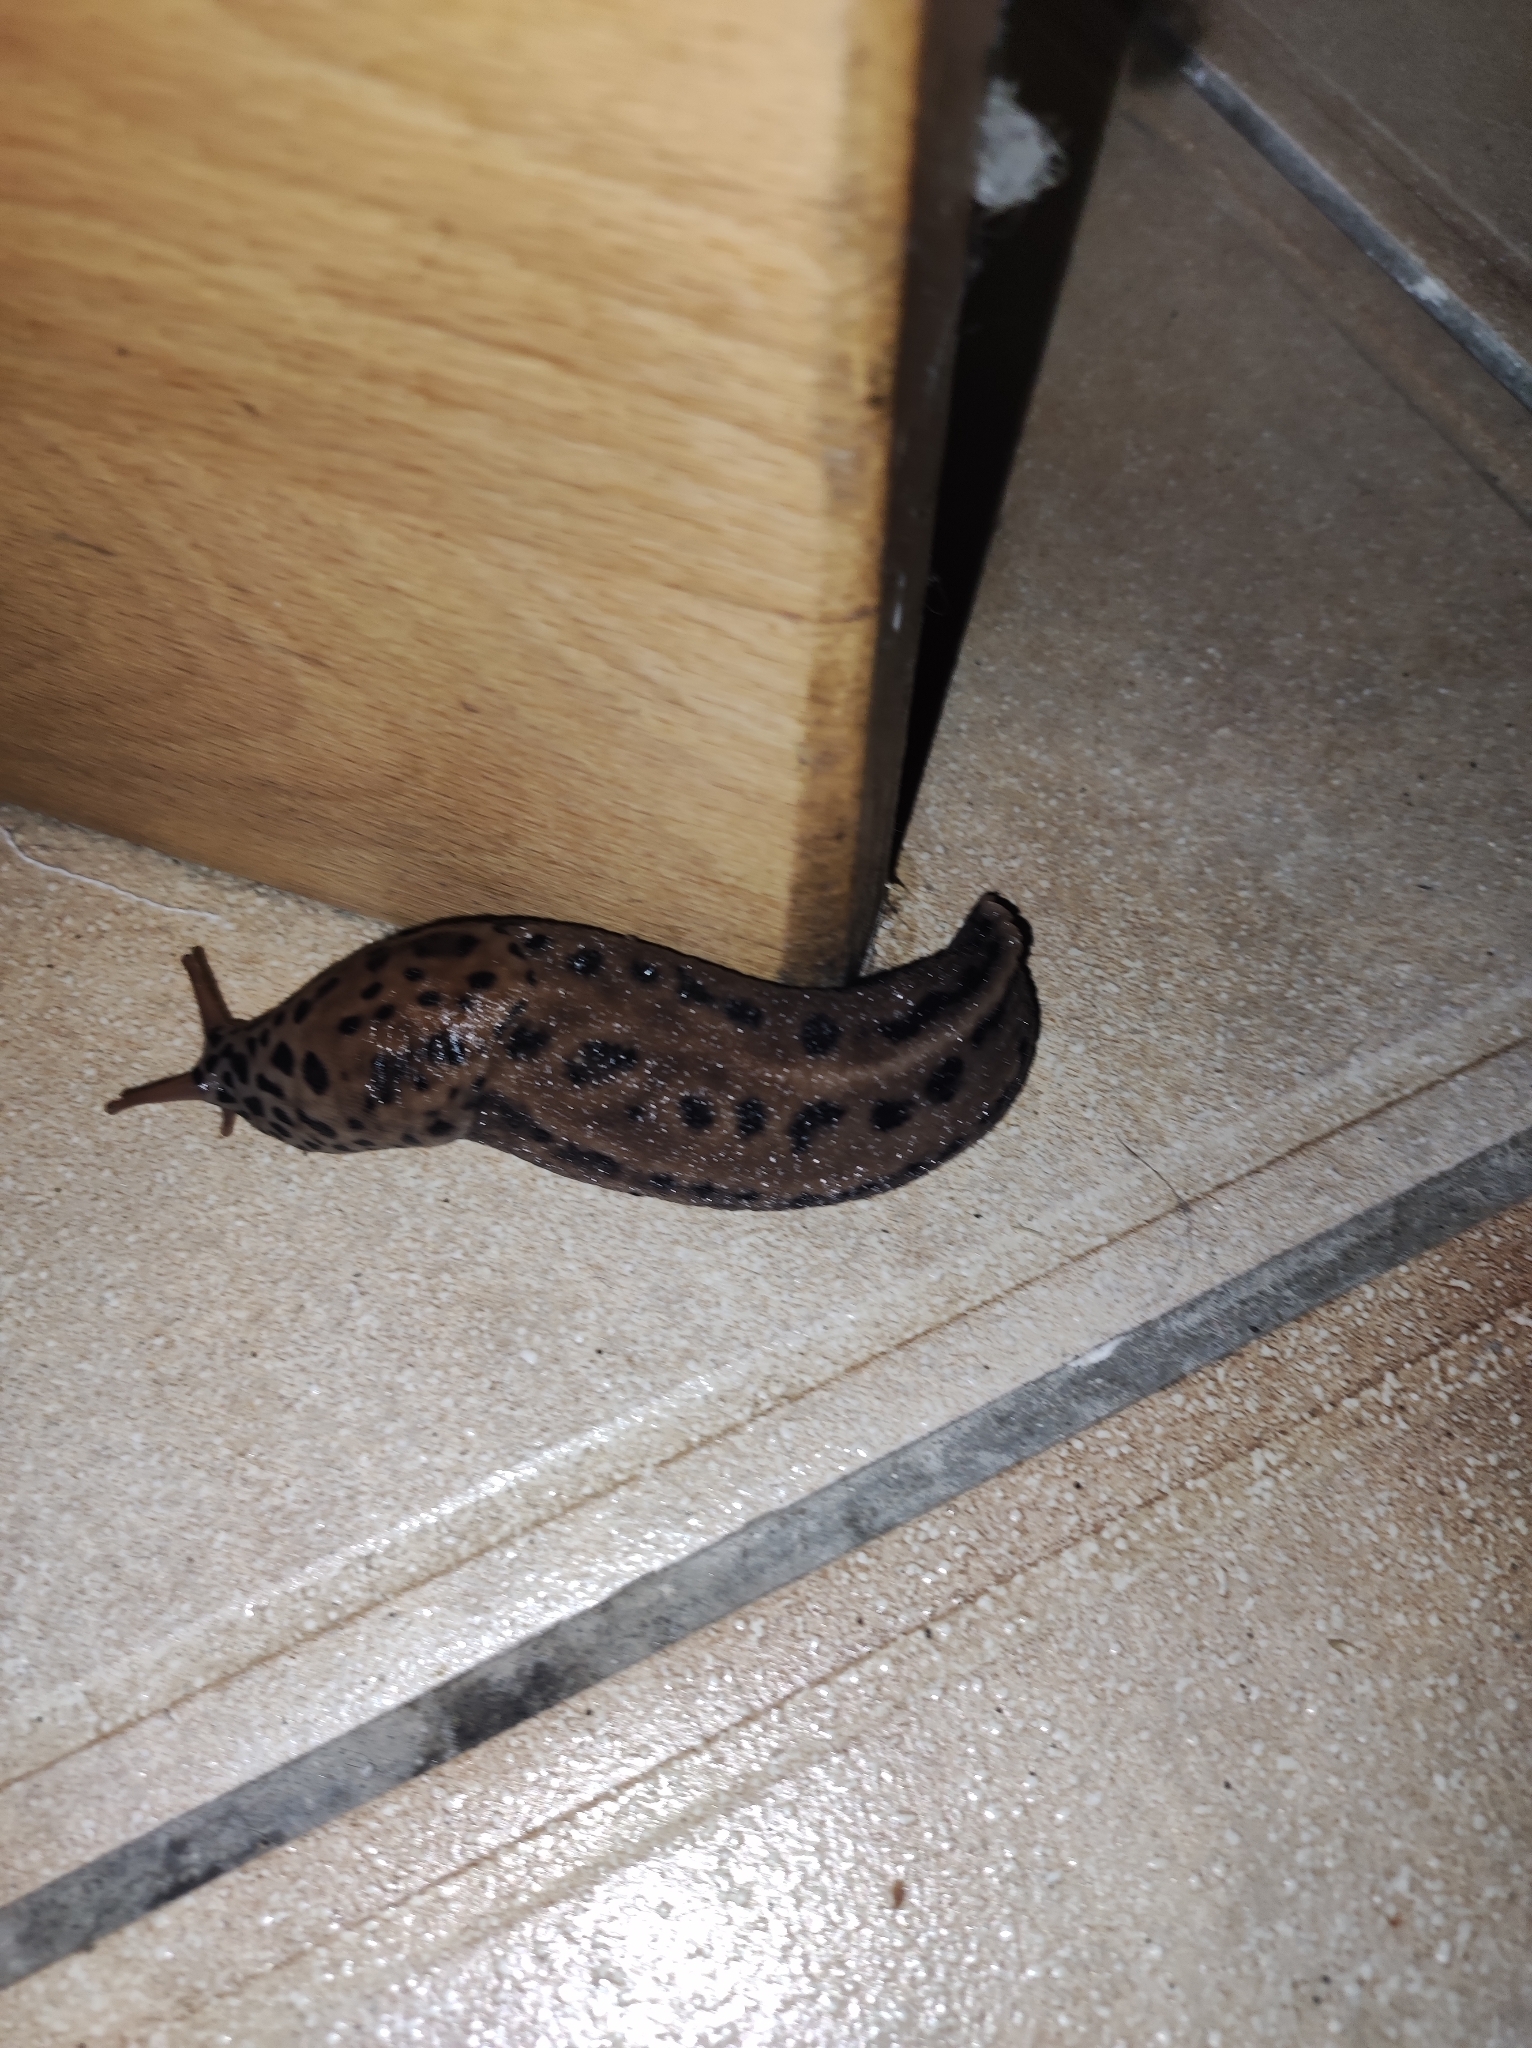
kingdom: Animalia
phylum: Mollusca
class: Gastropoda
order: Stylommatophora
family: Limacidae
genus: Limax
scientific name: Limax maximus
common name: Great grey slug
